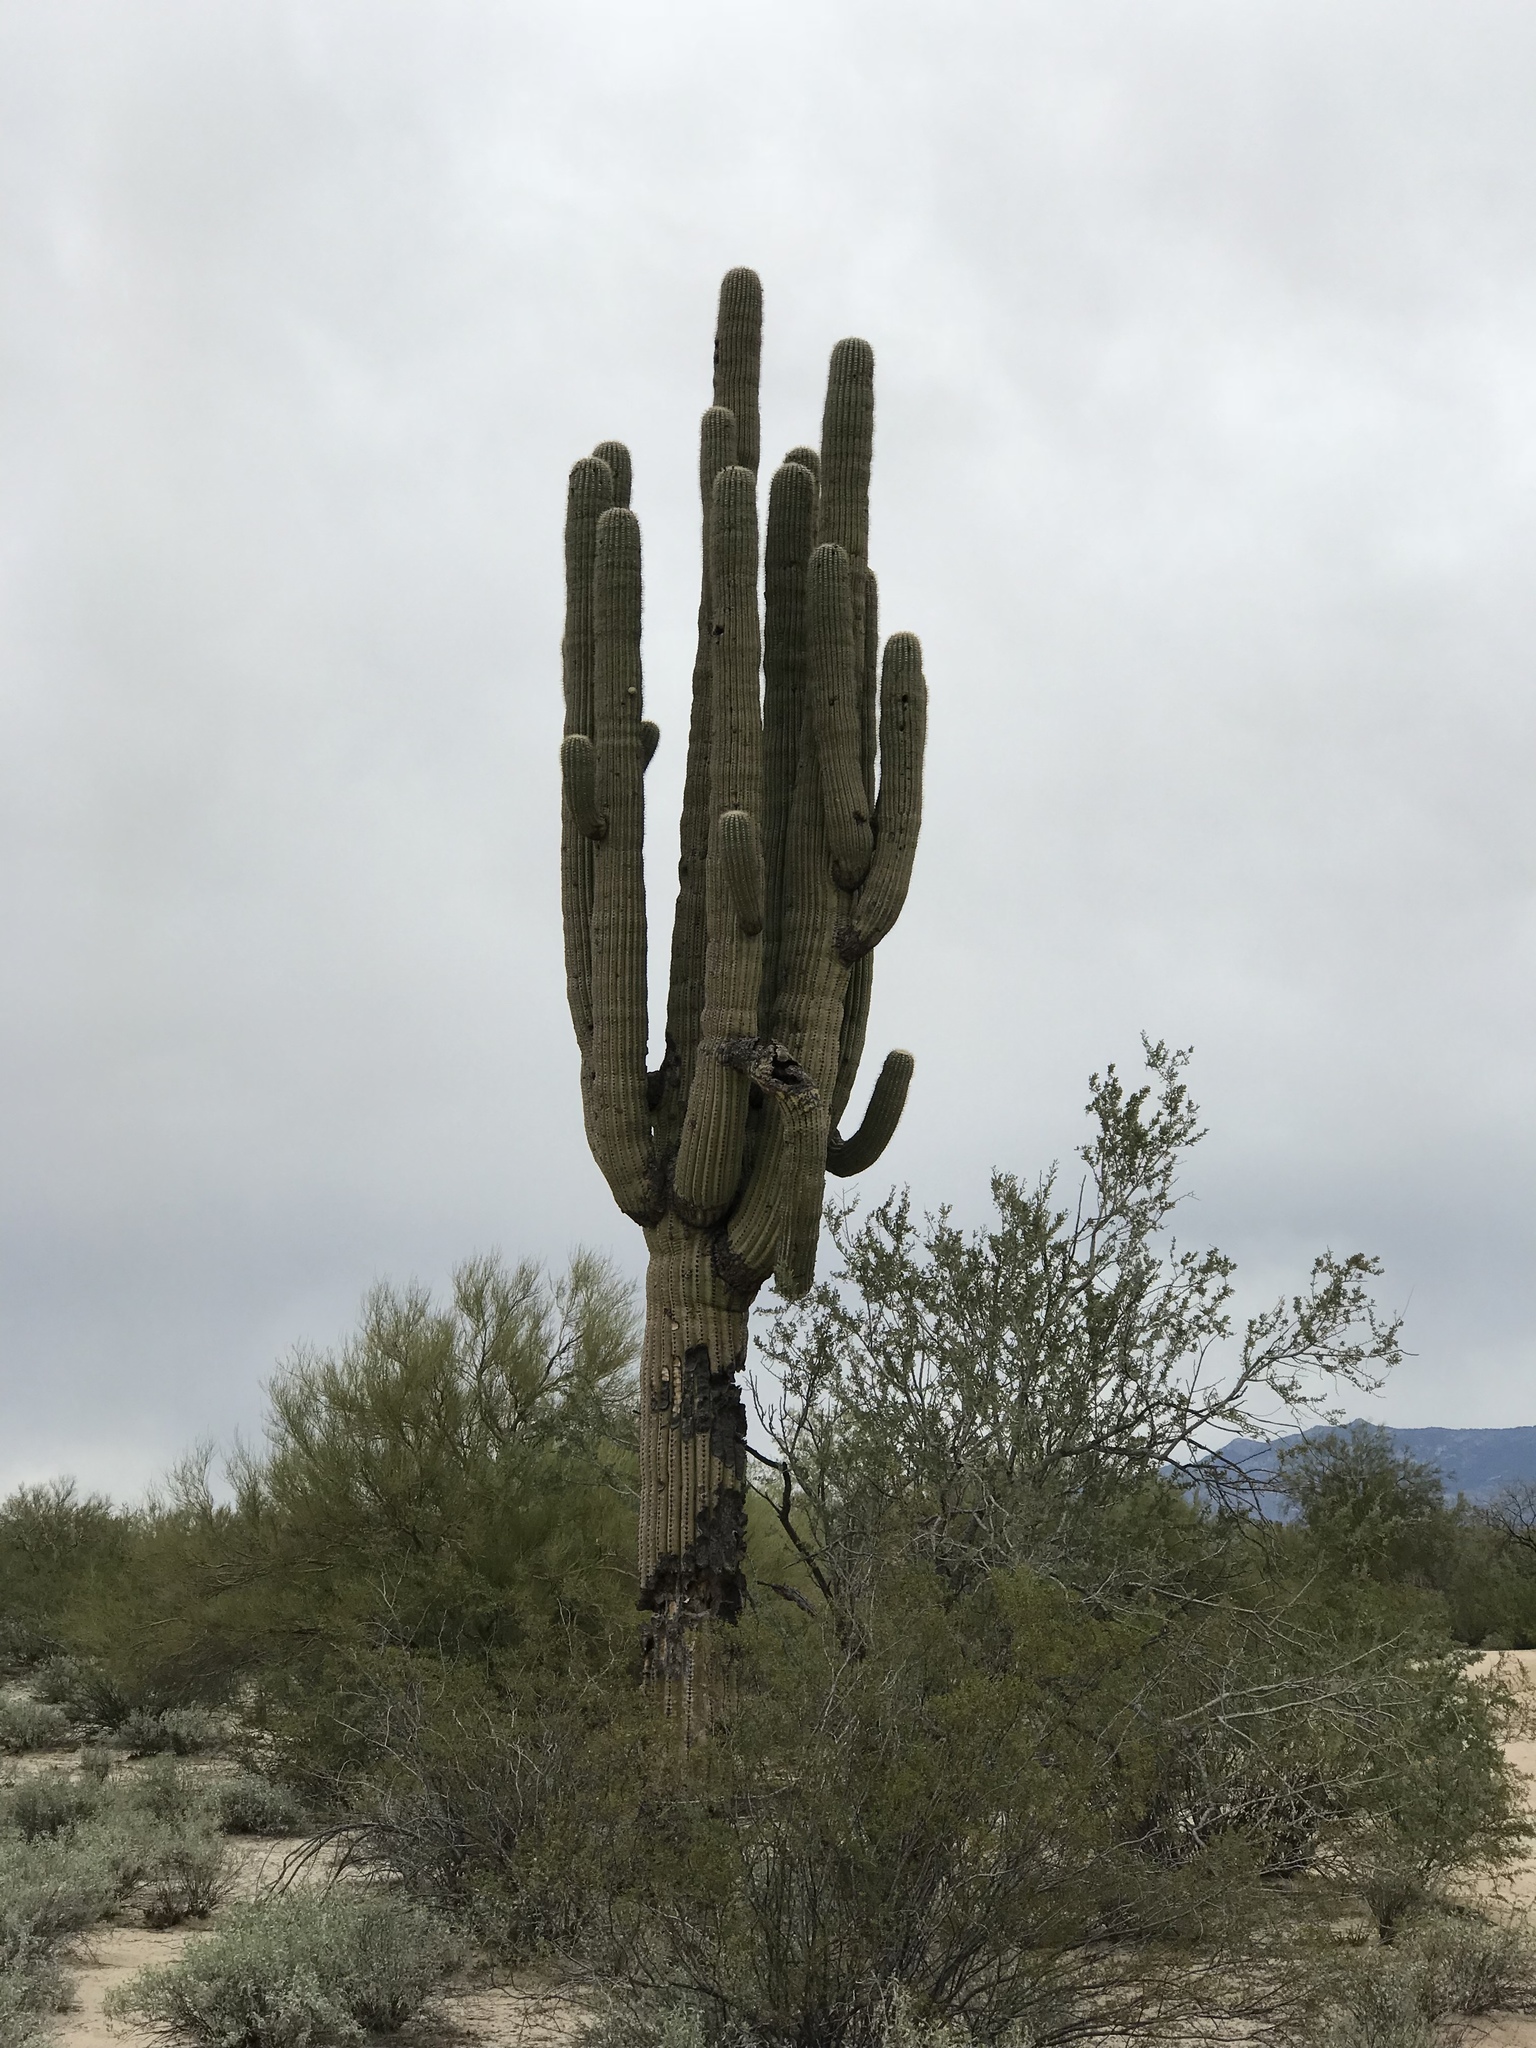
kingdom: Plantae
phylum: Tracheophyta
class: Magnoliopsida
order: Caryophyllales
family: Cactaceae
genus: Carnegiea
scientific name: Carnegiea gigantea
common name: Saguaro
